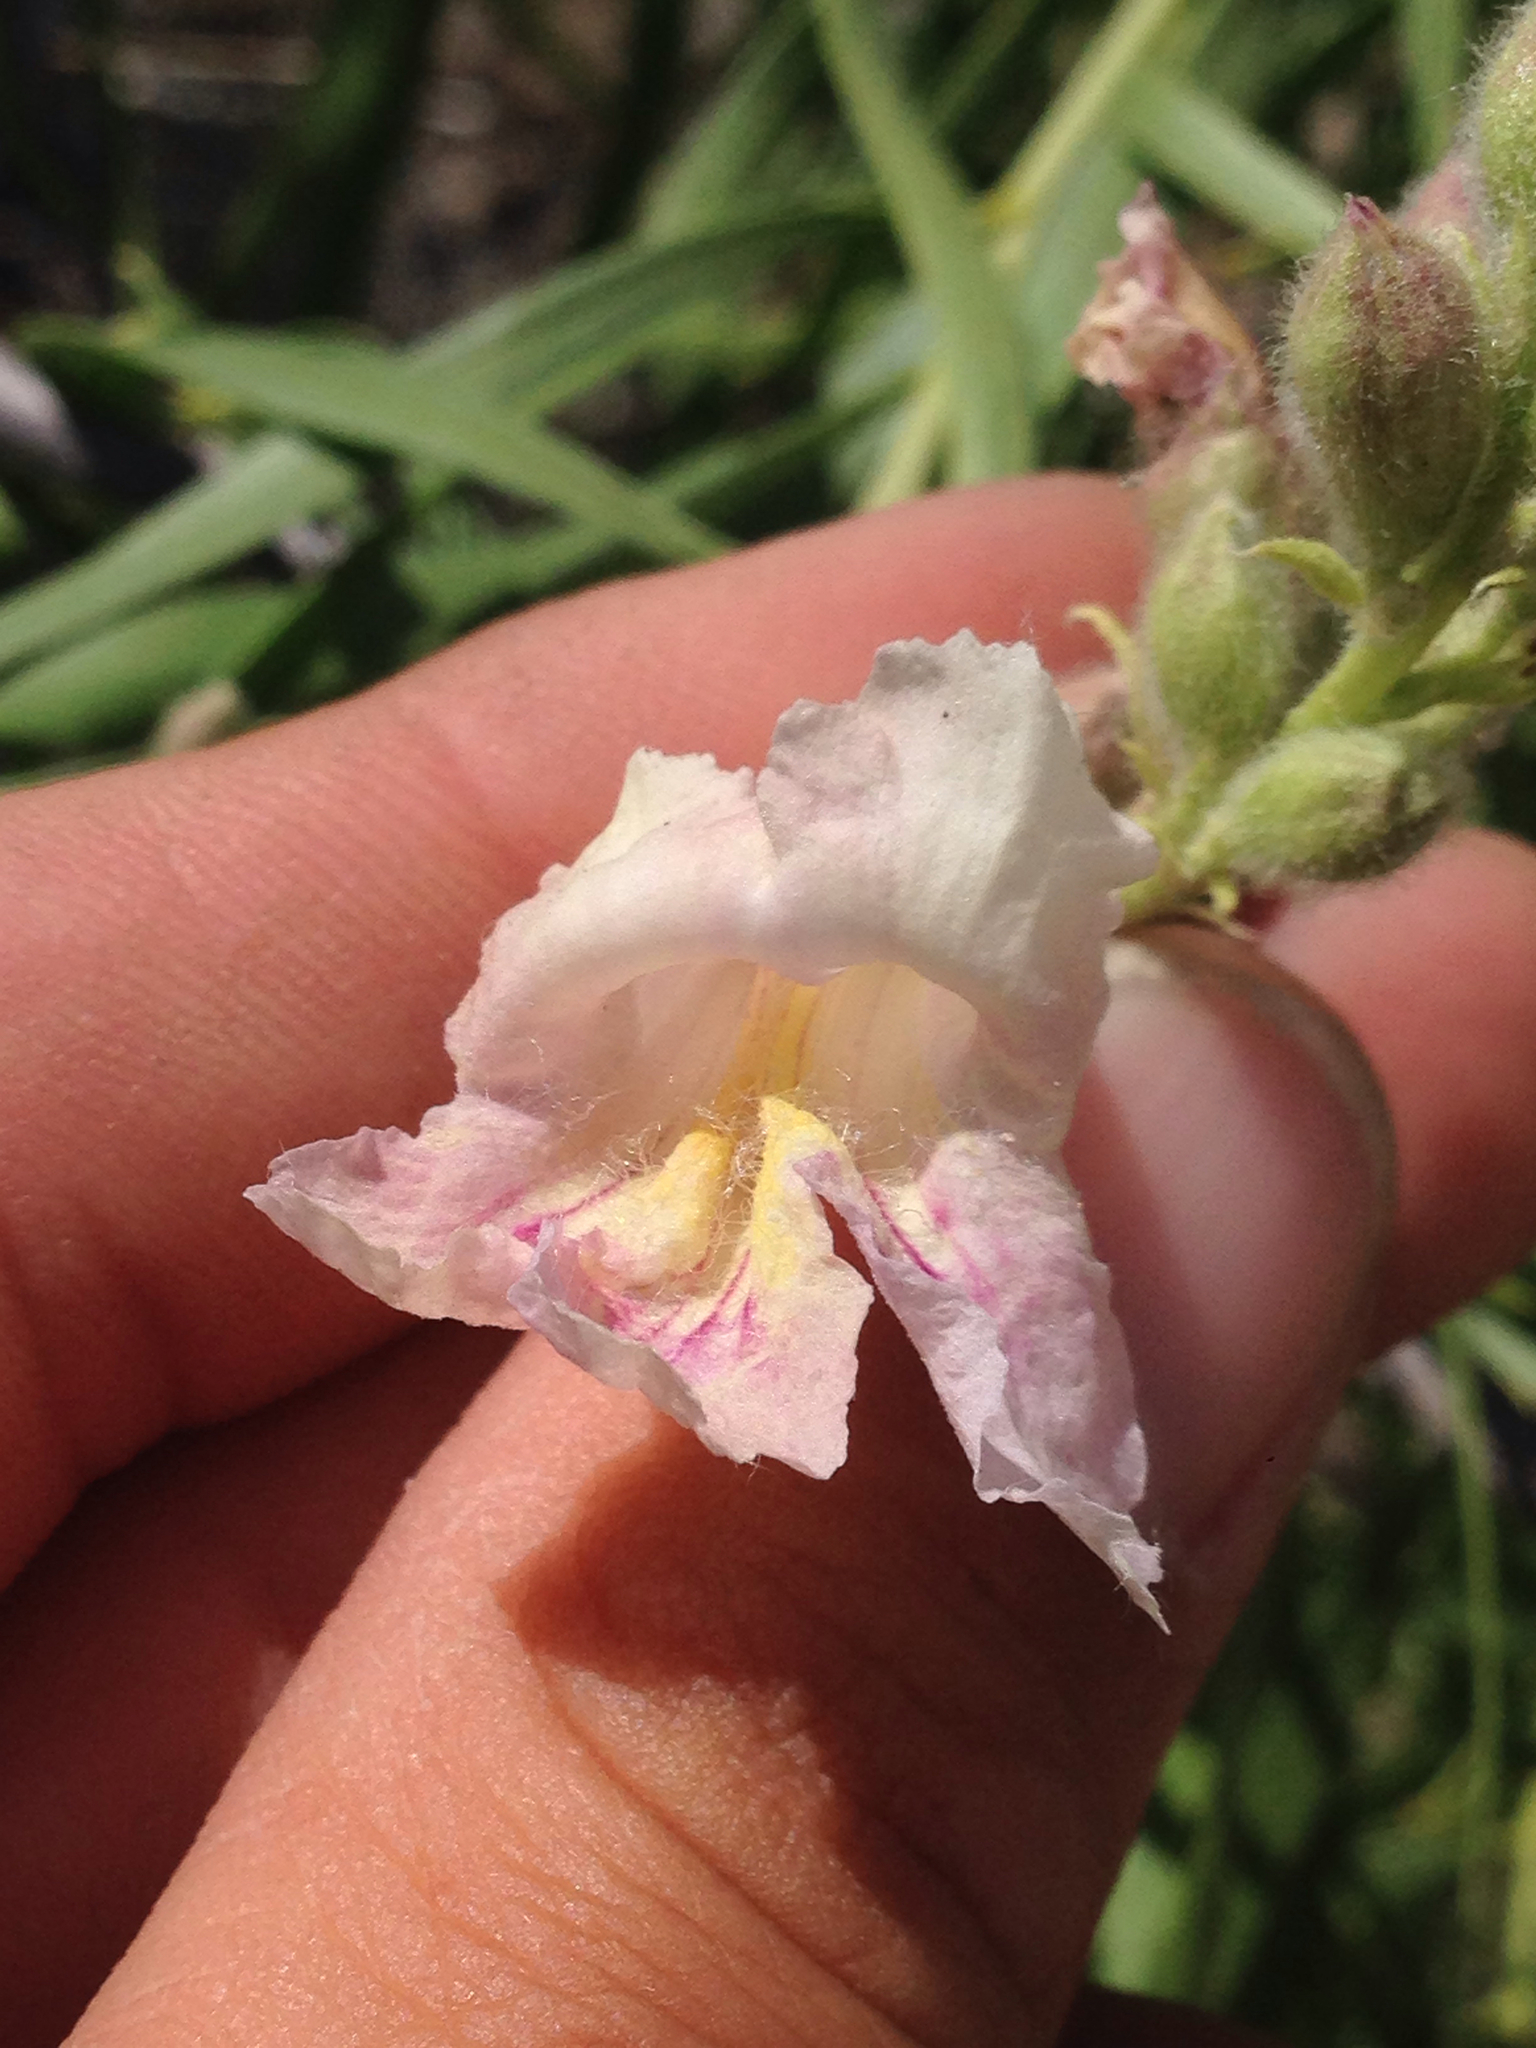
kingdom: Plantae
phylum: Tracheophyta
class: Magnoliopsida
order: Lamiales
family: Bignoniaceae
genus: Chilopsis
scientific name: Chilopsis linearis
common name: Desert-willow
